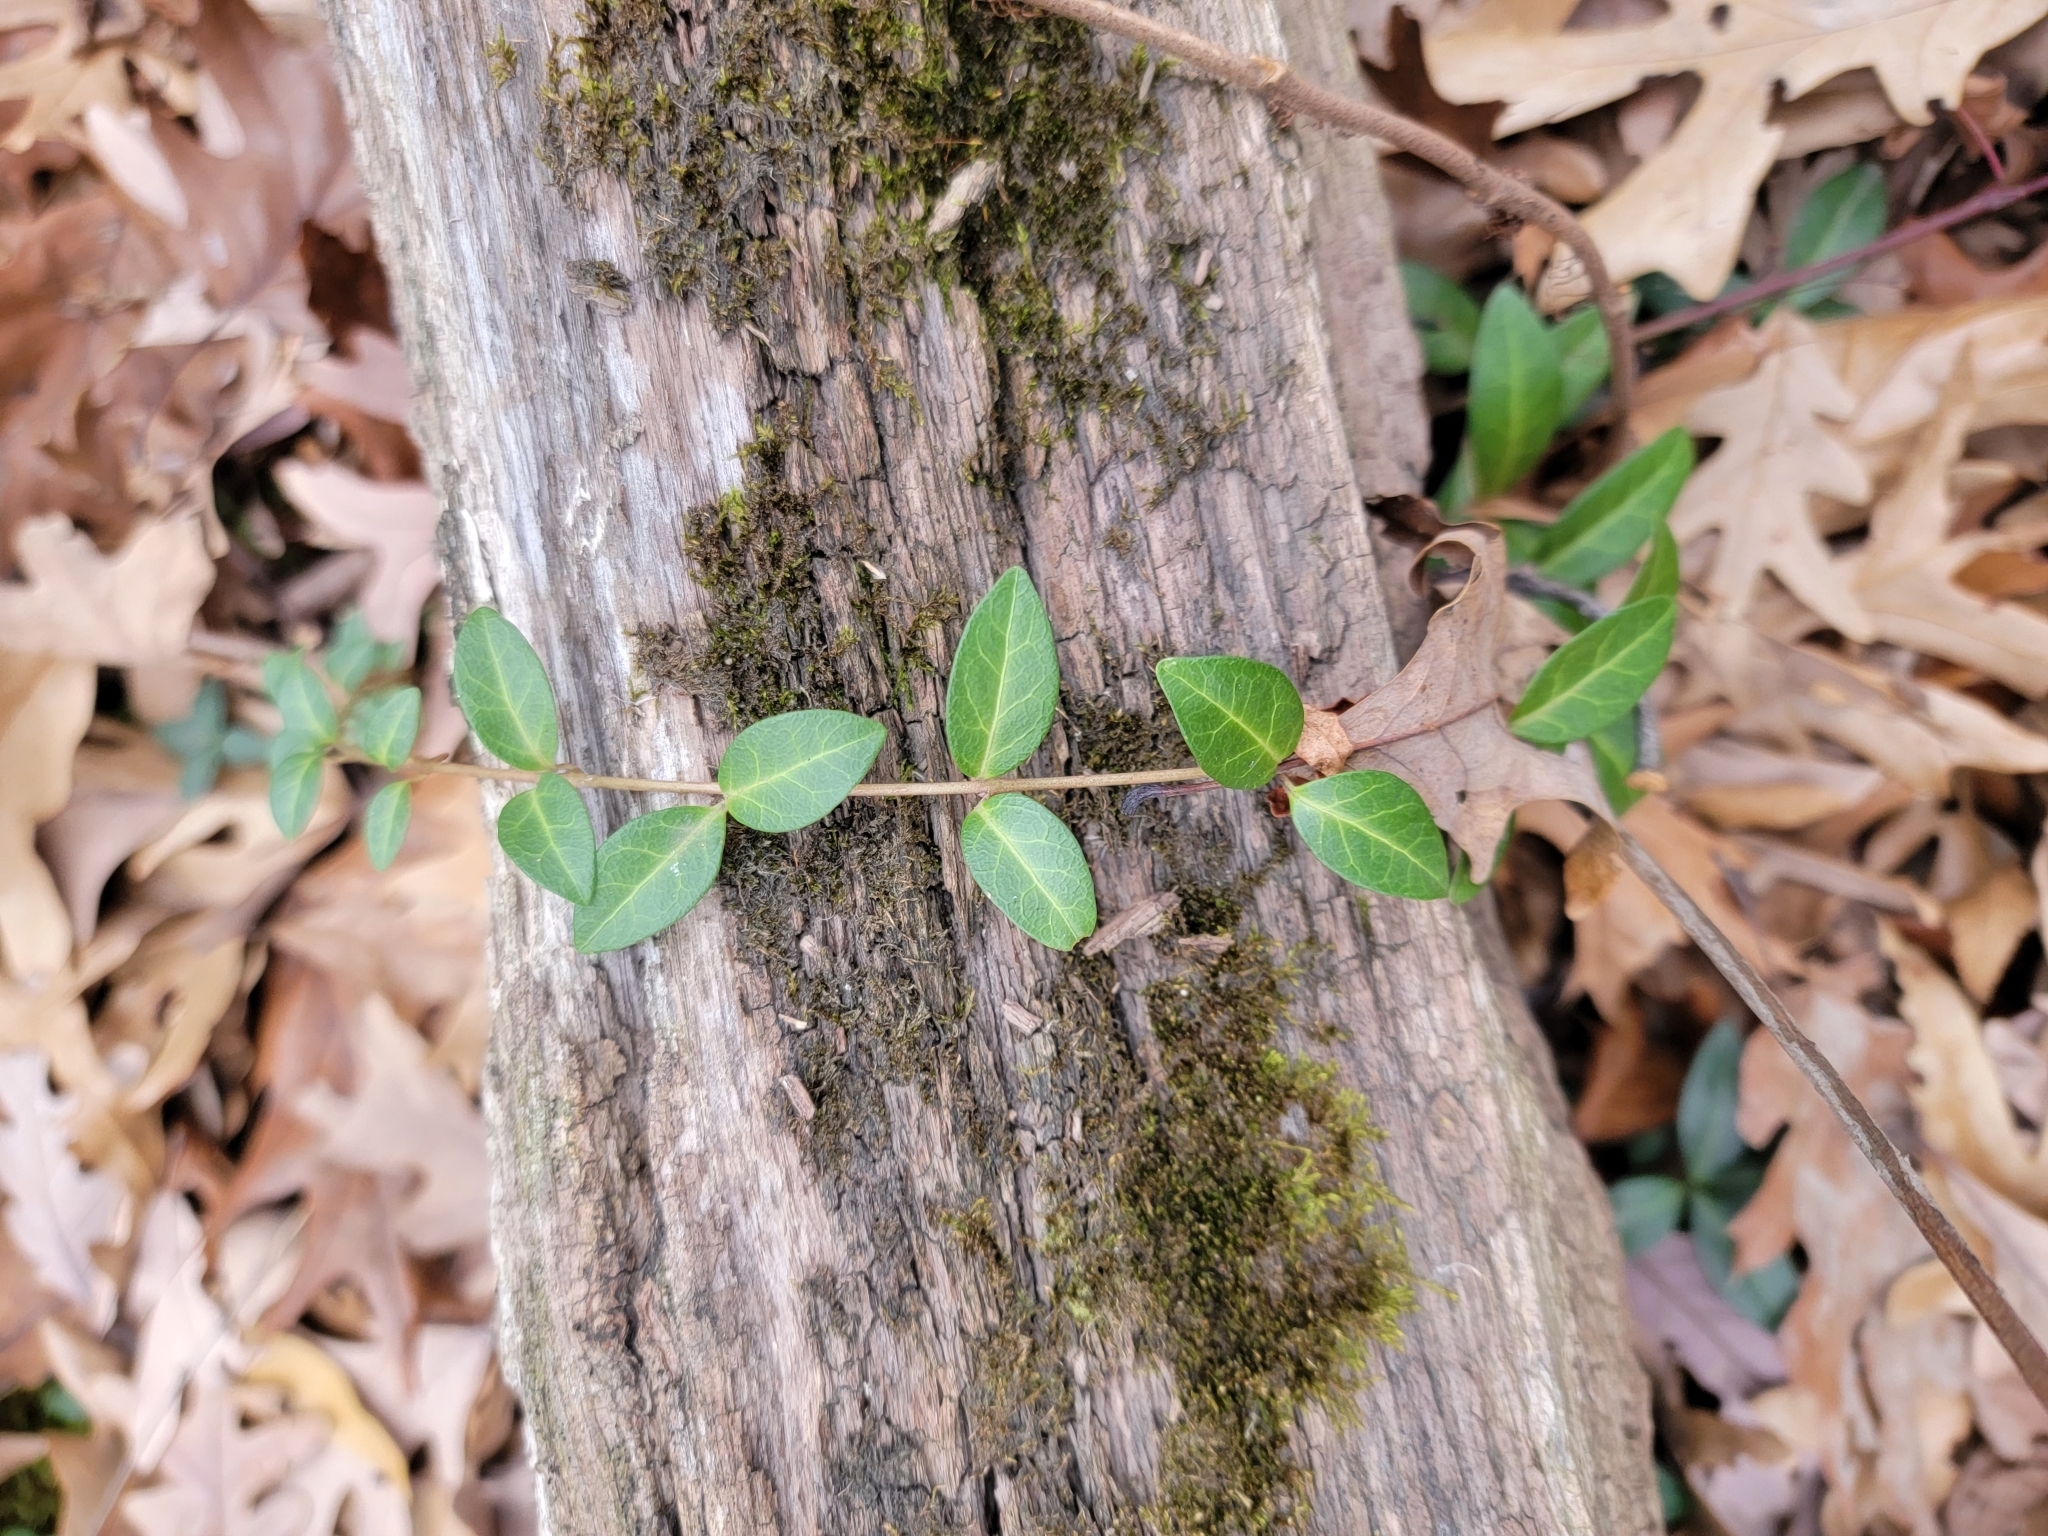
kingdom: Plantae
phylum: Tracheophyta
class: Magnoliopsida
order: Gentianales
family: Apocynaceae
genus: Vinca
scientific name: Vinca minor
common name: Lesser periwinkle
